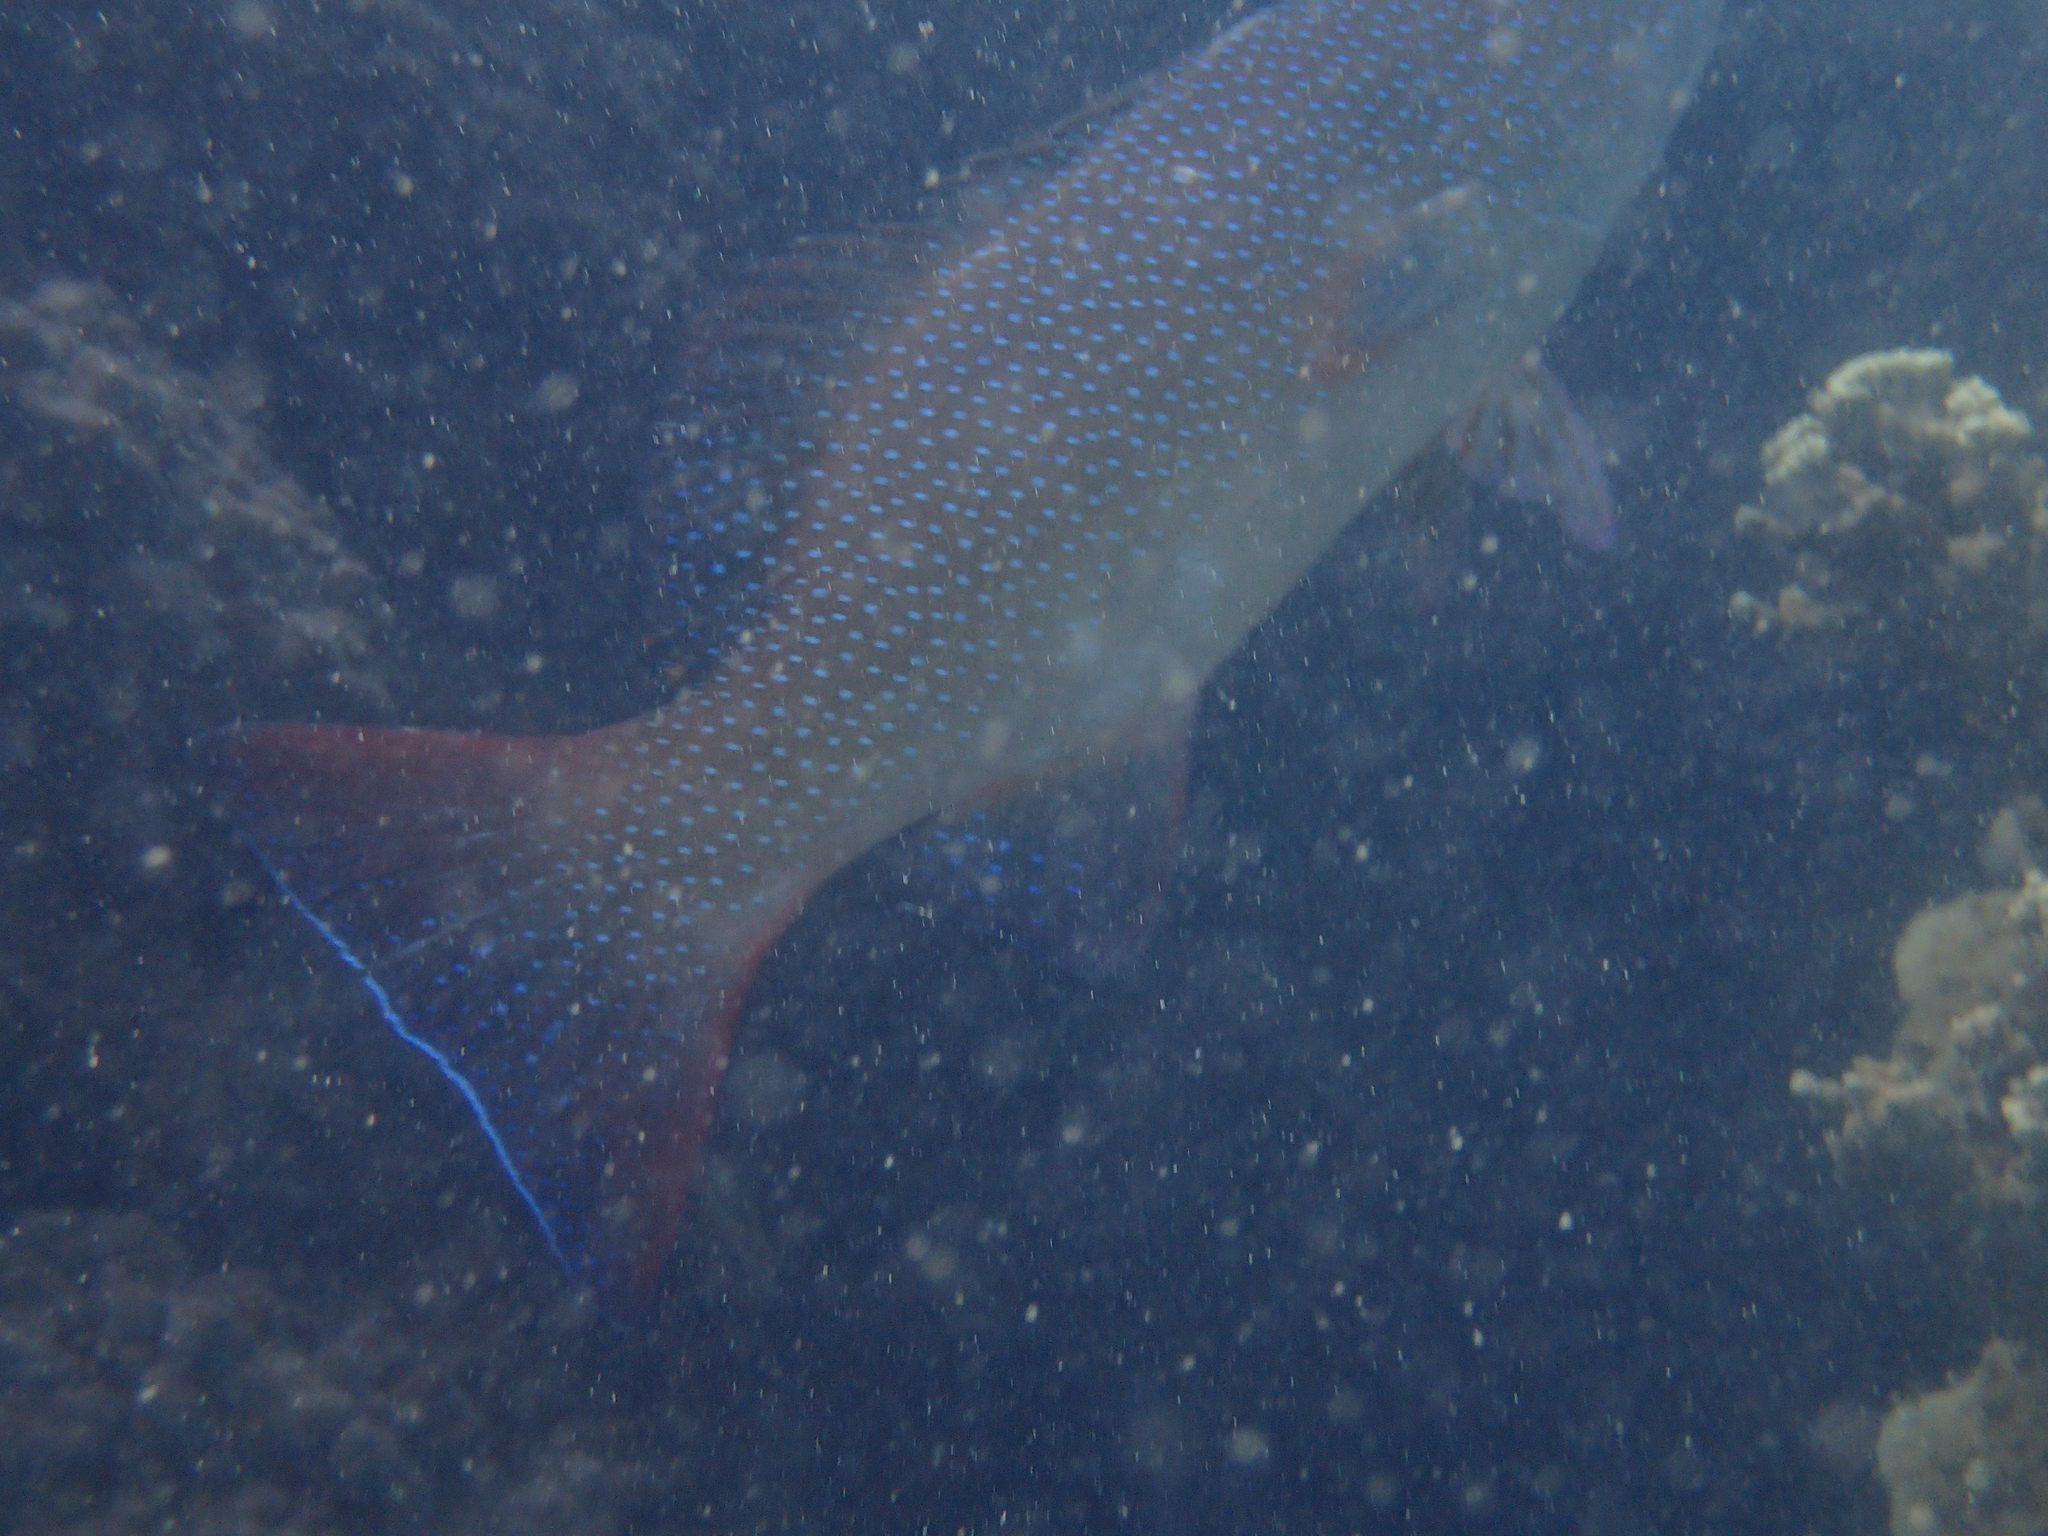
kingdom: Animalia
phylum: Chordata
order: Perciformes
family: Serranidae
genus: Plectropomus
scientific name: Plectropomus leopardus
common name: Coral trout
